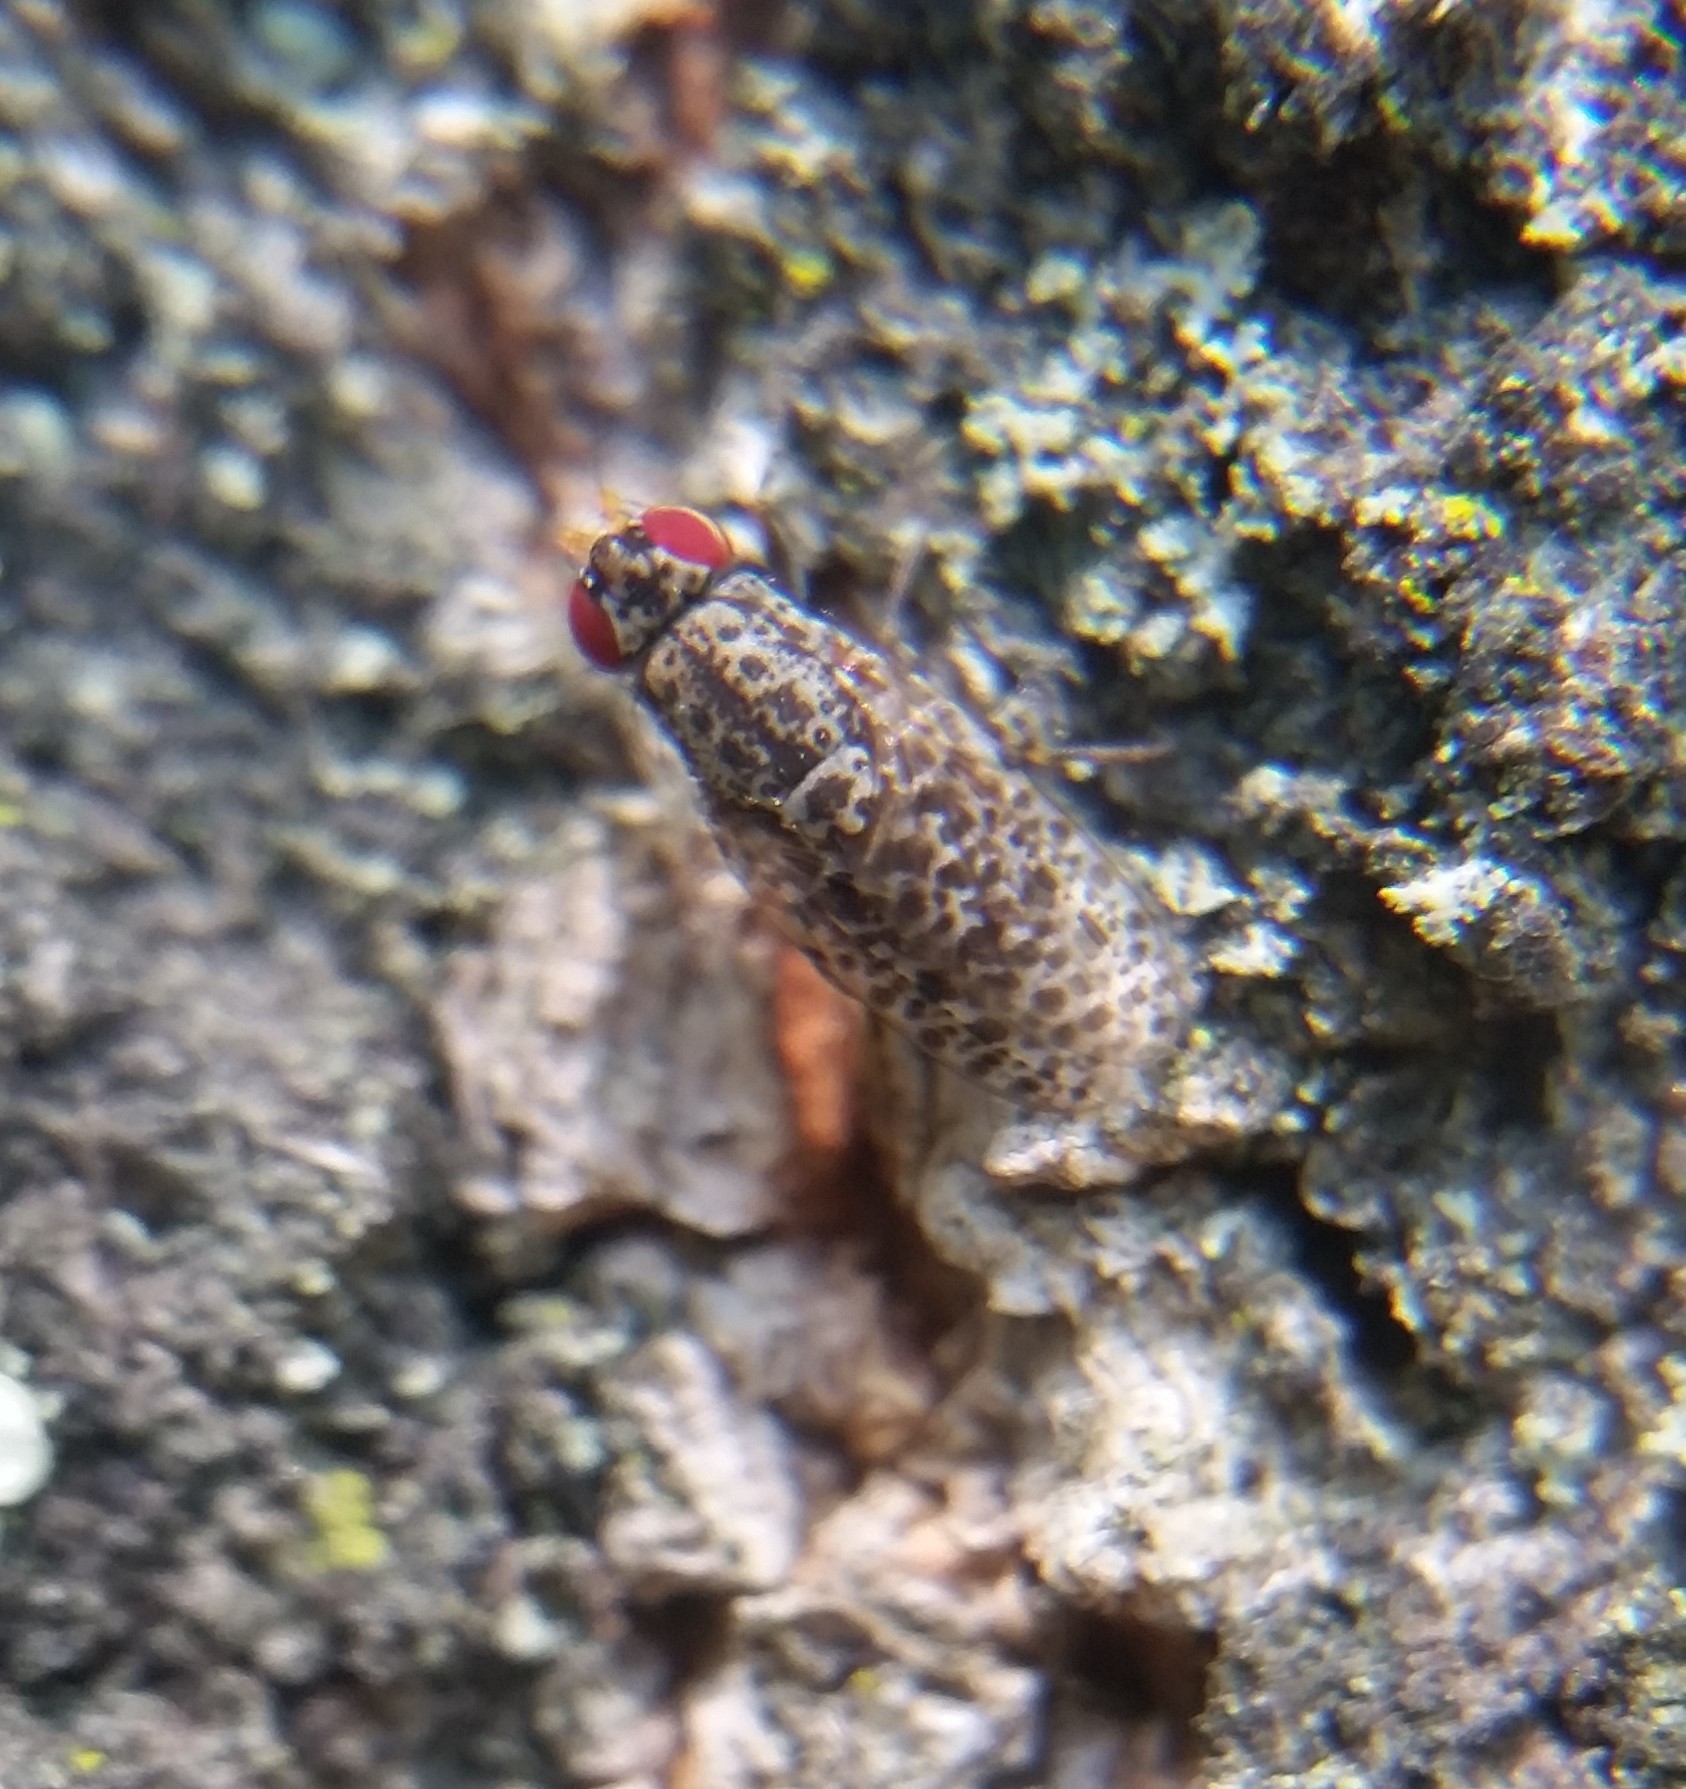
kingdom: Animalia
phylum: Arthropoda
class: Insecta
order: Diptera
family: Odiniidae
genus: Traginops
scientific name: Traginops irroratus
